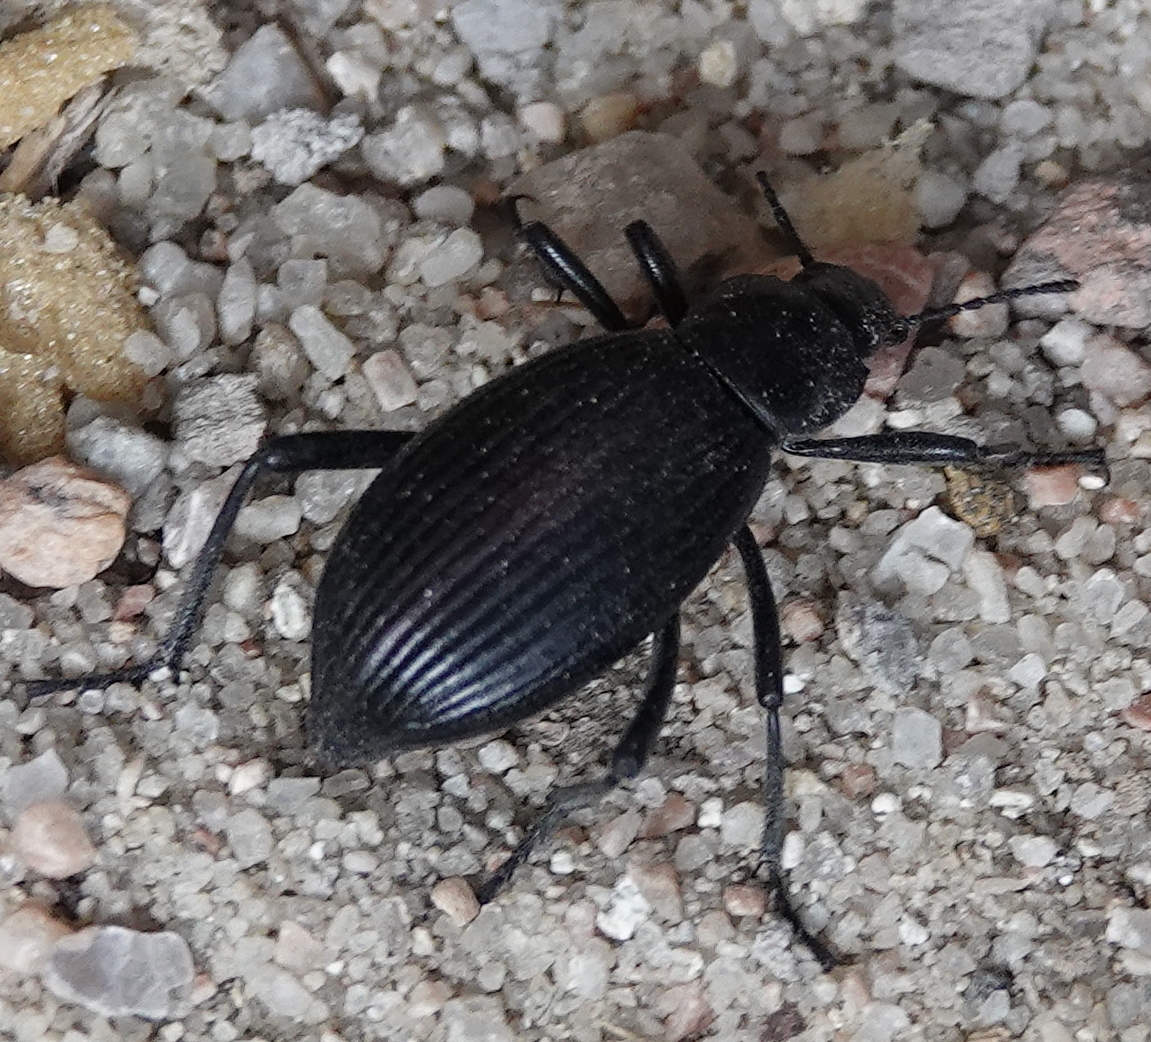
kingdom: Animalia
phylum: Arthropoda
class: Insecta
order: Coleoptera
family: Tenebrionidae
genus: Eleodes
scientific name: Eleodes hispilabris
